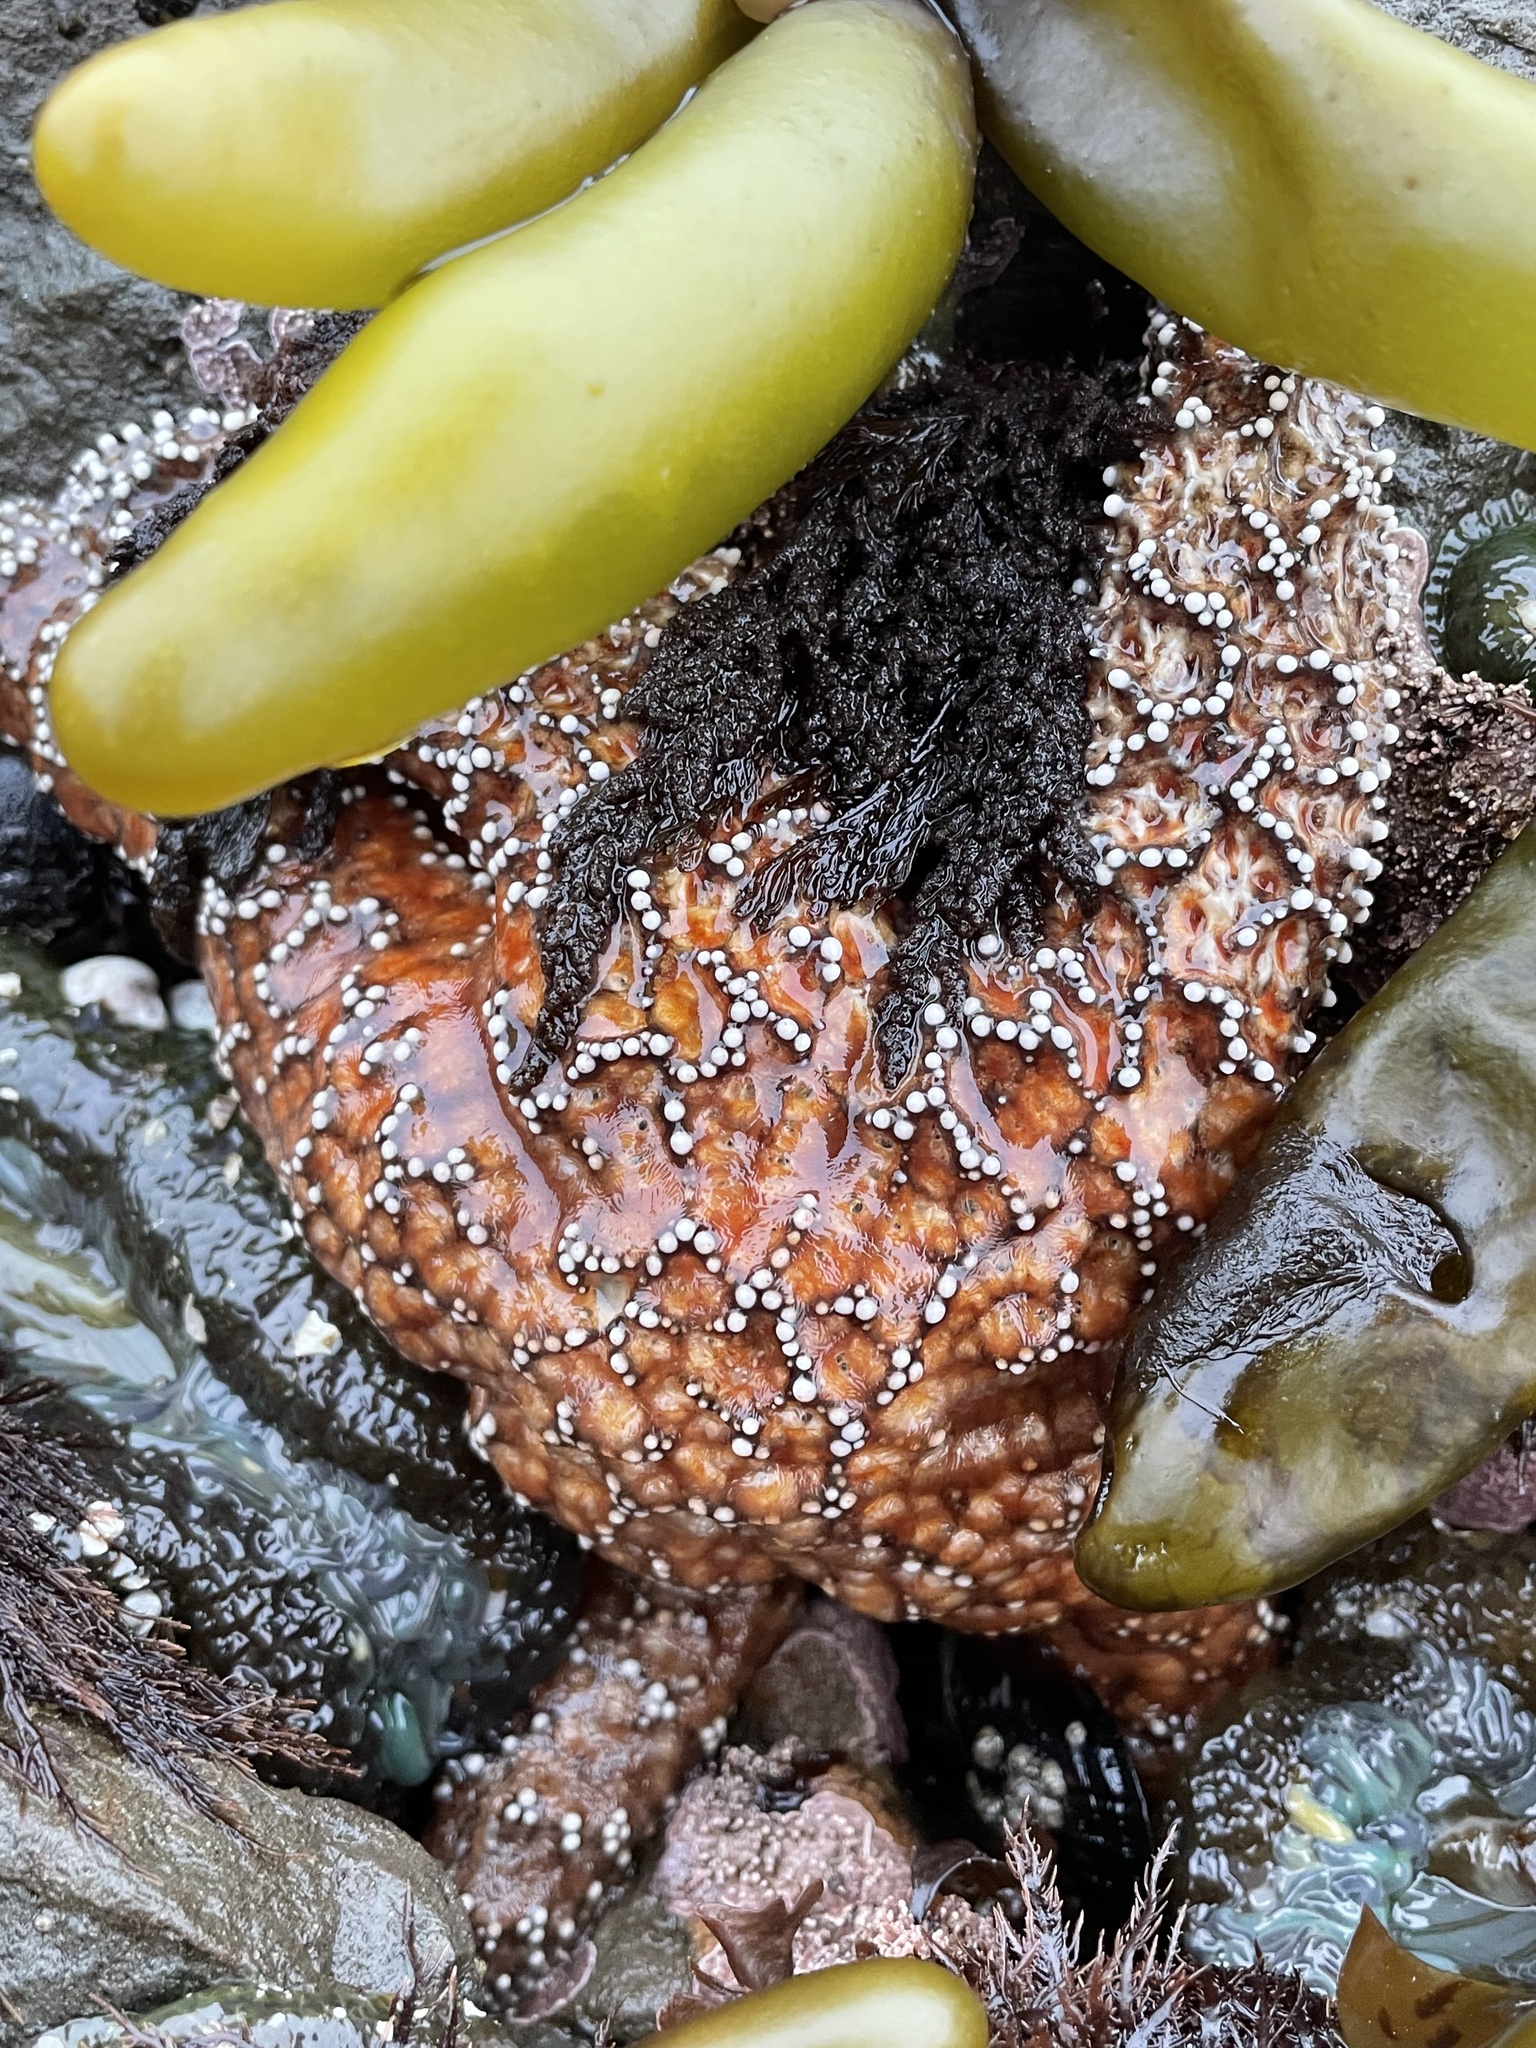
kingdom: Animalia
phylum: Echinodermata
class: Asteroidea
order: Forcipulatida
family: Asteriidae
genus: Pisaster
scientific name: Pisaster ochraceus
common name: Ochre stars
